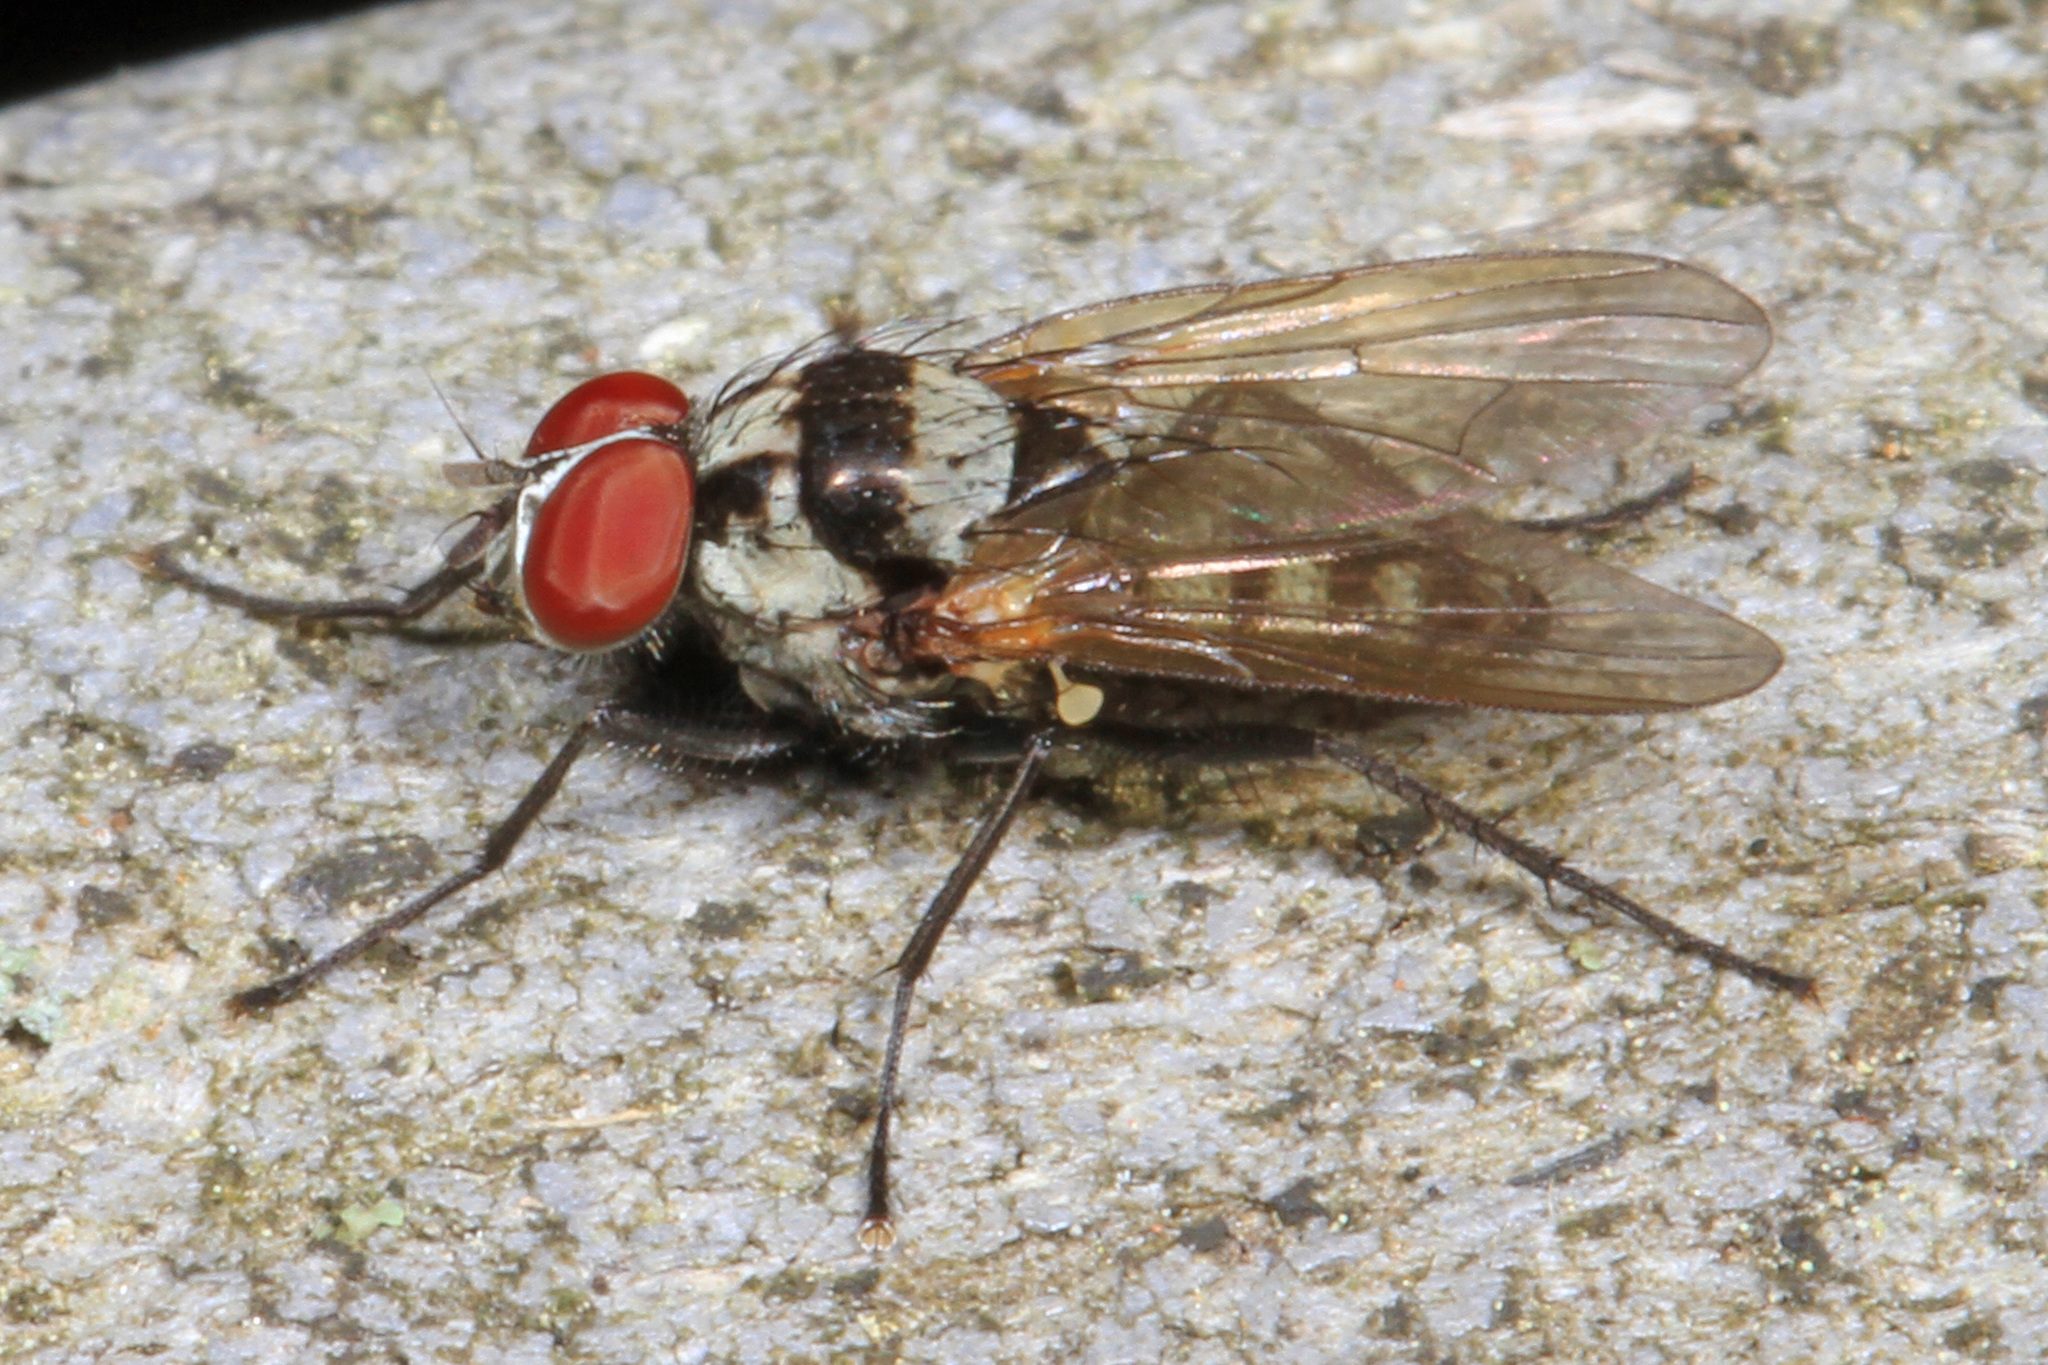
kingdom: Animalia
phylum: Arthropoda
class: Insecta
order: Diptera
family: Anthomyiidae
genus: Anthomyia
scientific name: Anthomyia oculifera
